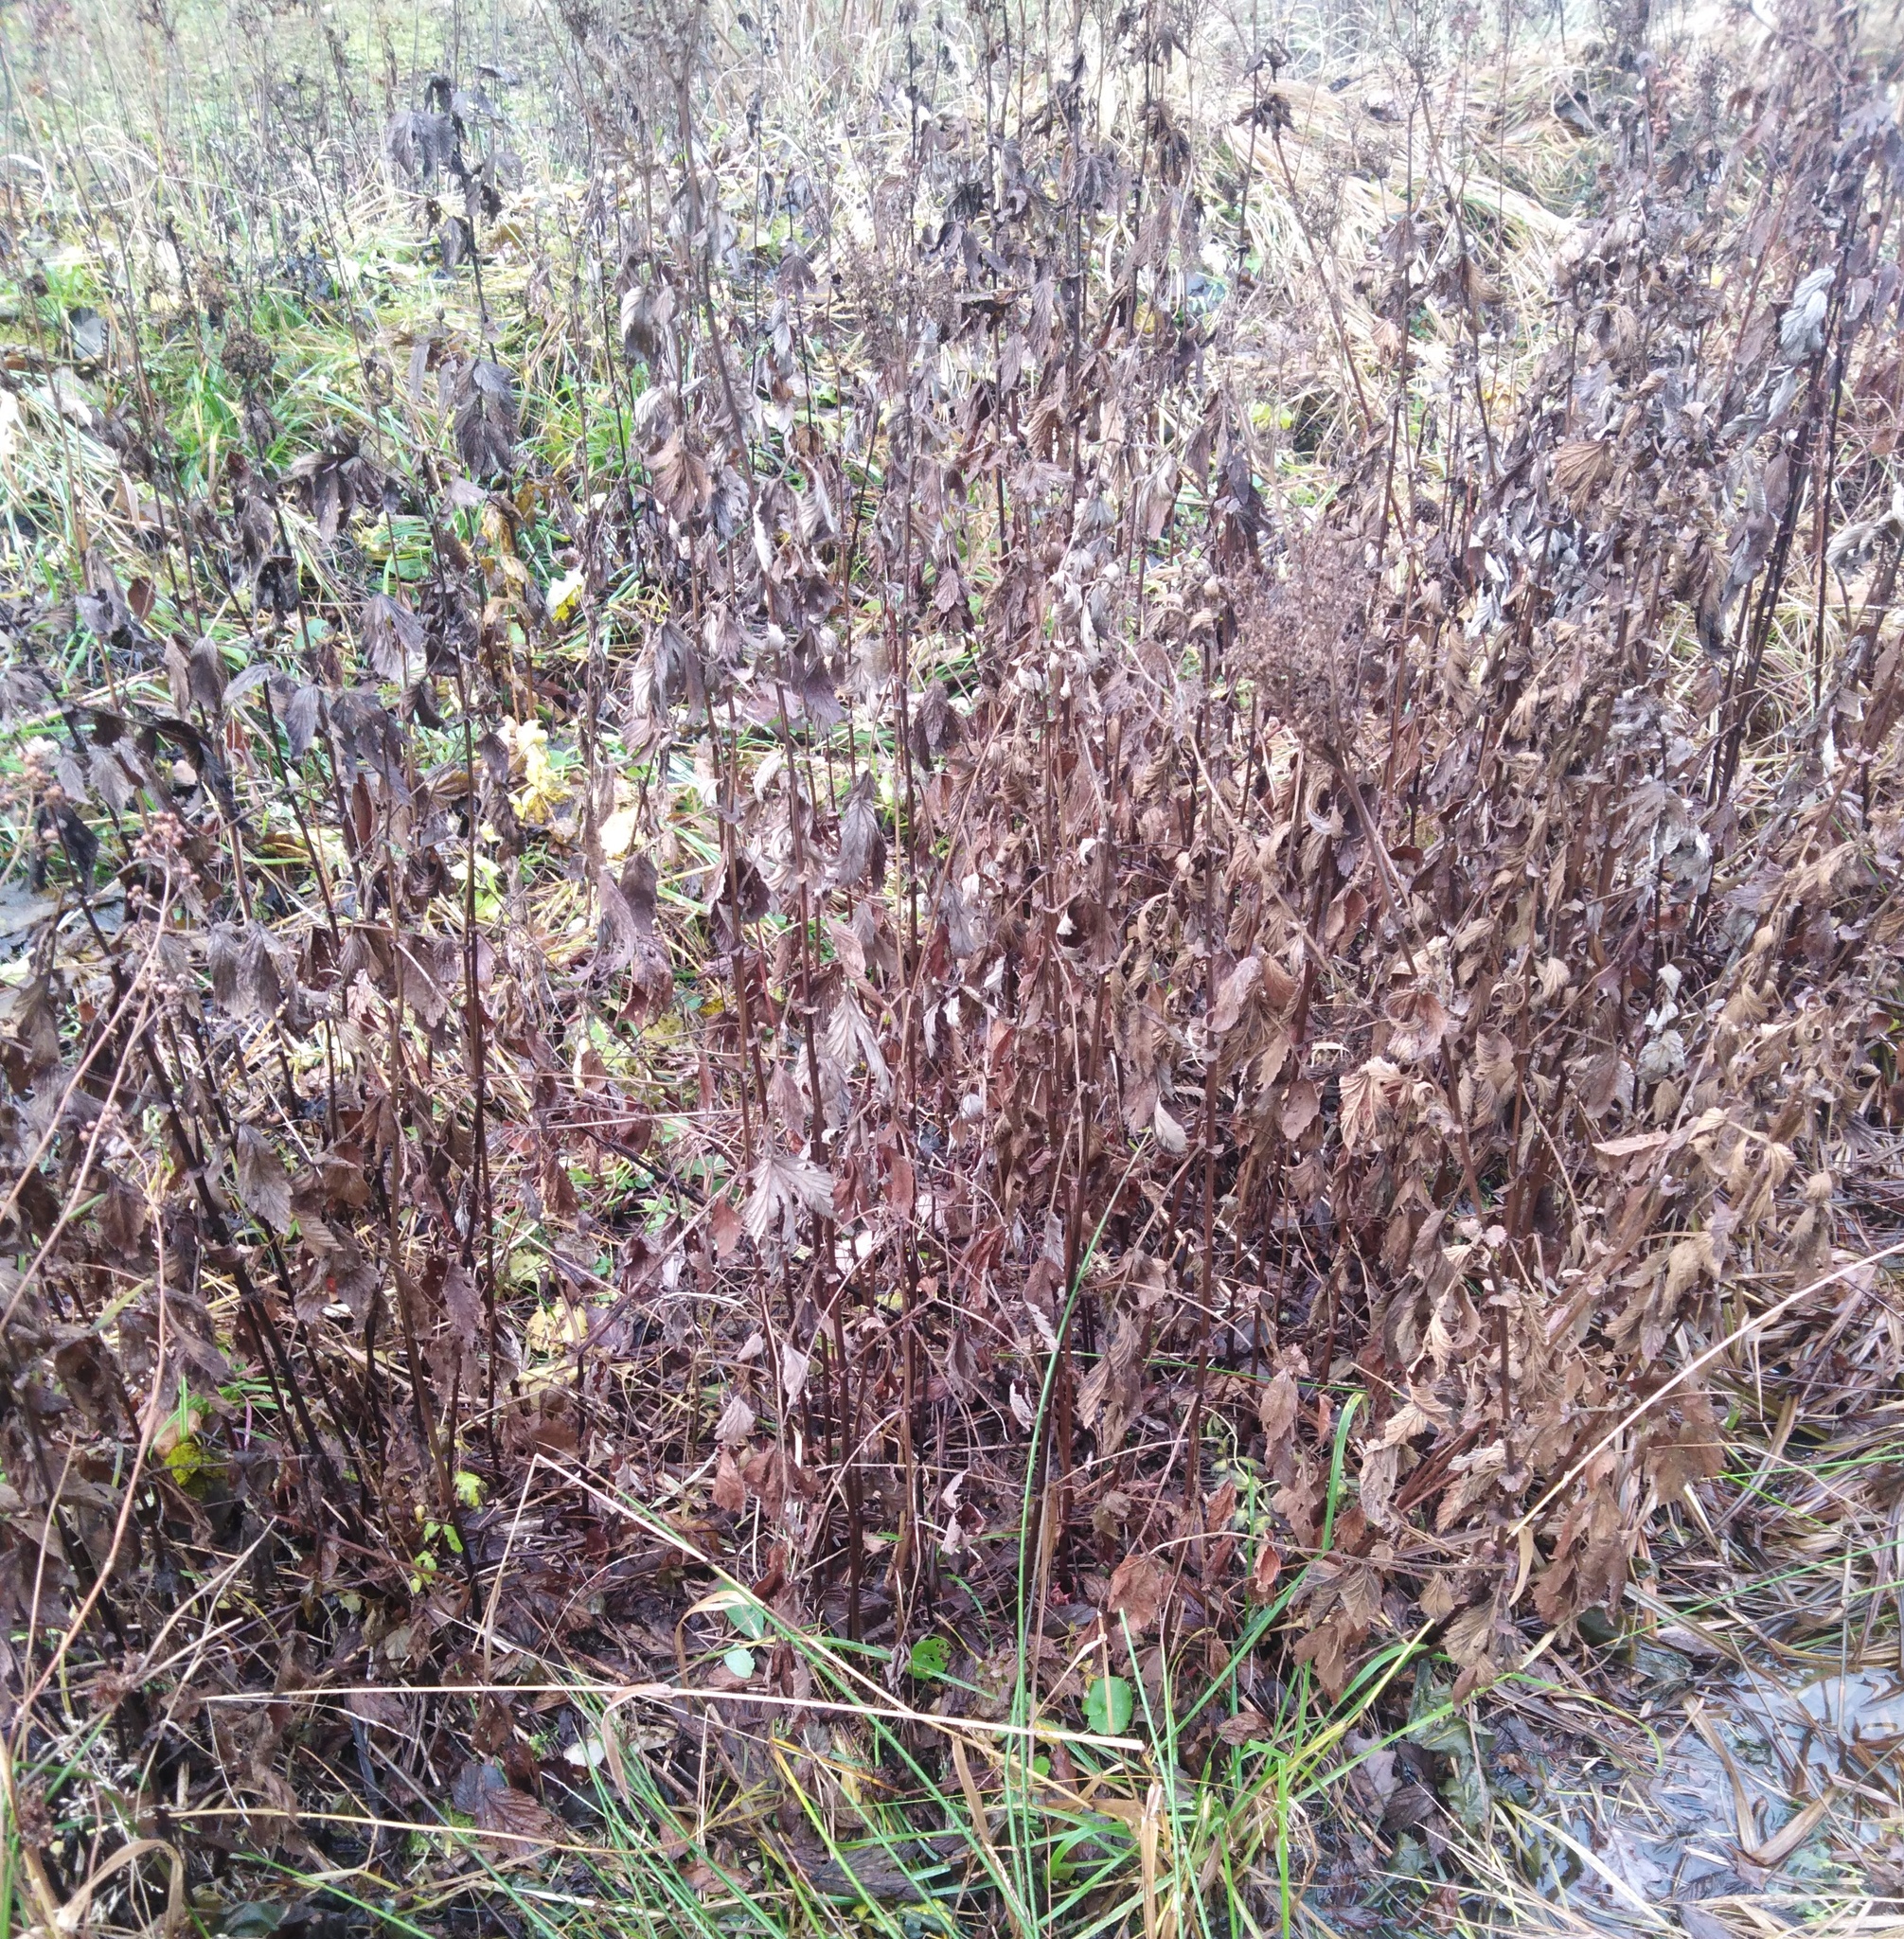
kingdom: Plantae
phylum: Tracheophyta
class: Magnoliopsida
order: Rosales
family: Rosaceae
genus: Filipendula
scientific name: Filipendula ulmaria
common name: Meadowsweet
